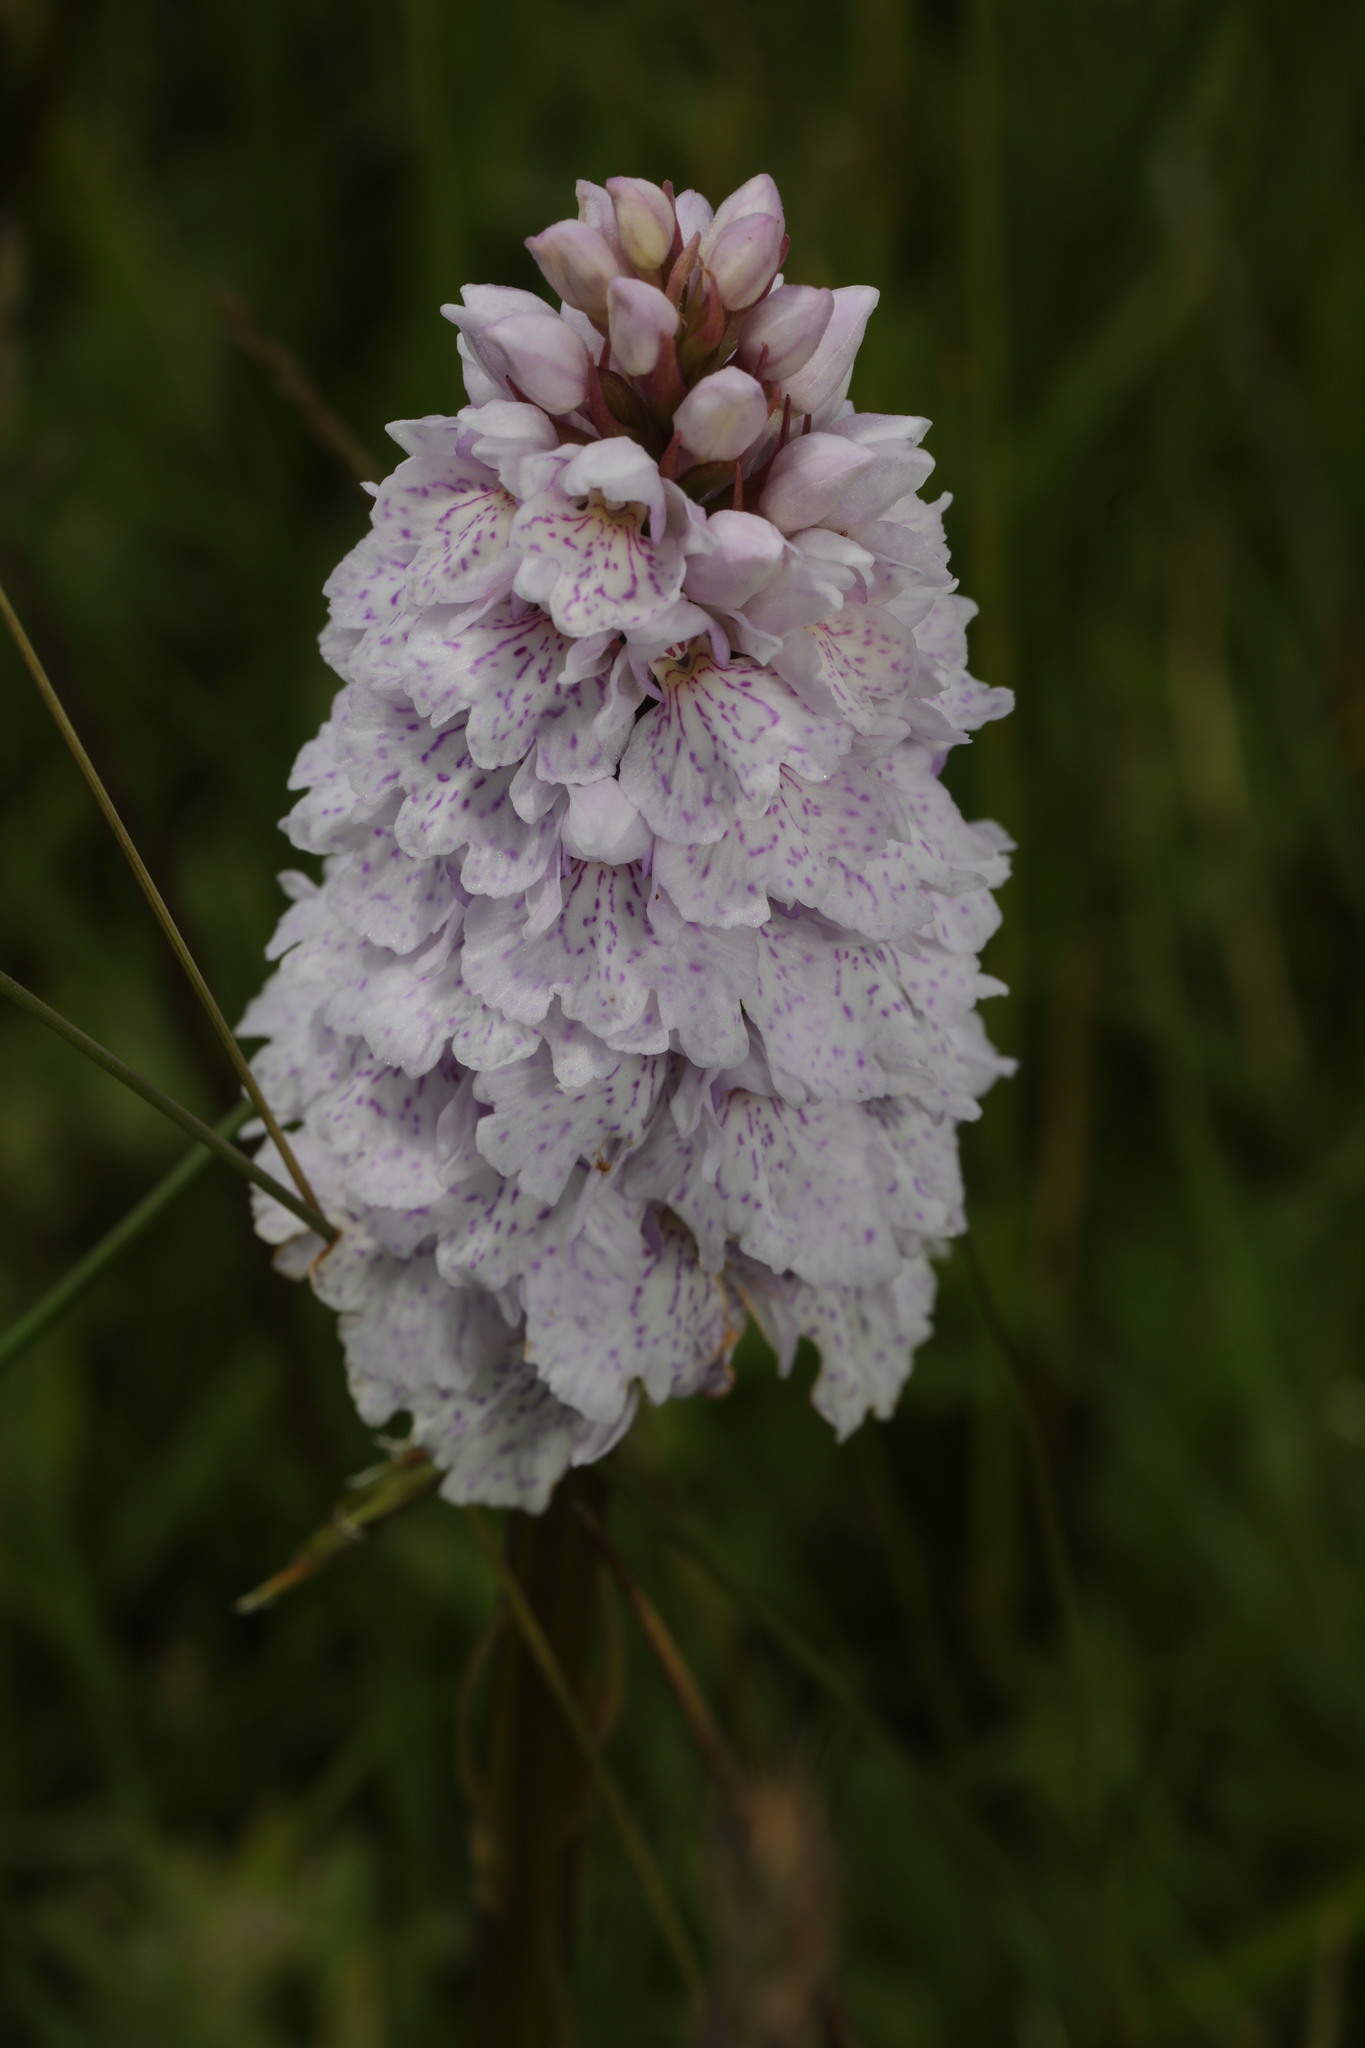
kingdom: Plantae
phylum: Tracheophyta
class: Liliopsida
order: Asparagales
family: Orchidaceae
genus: Dactylorhiza
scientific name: Dactylorhiza maculata
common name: Heath spotted-orchid
